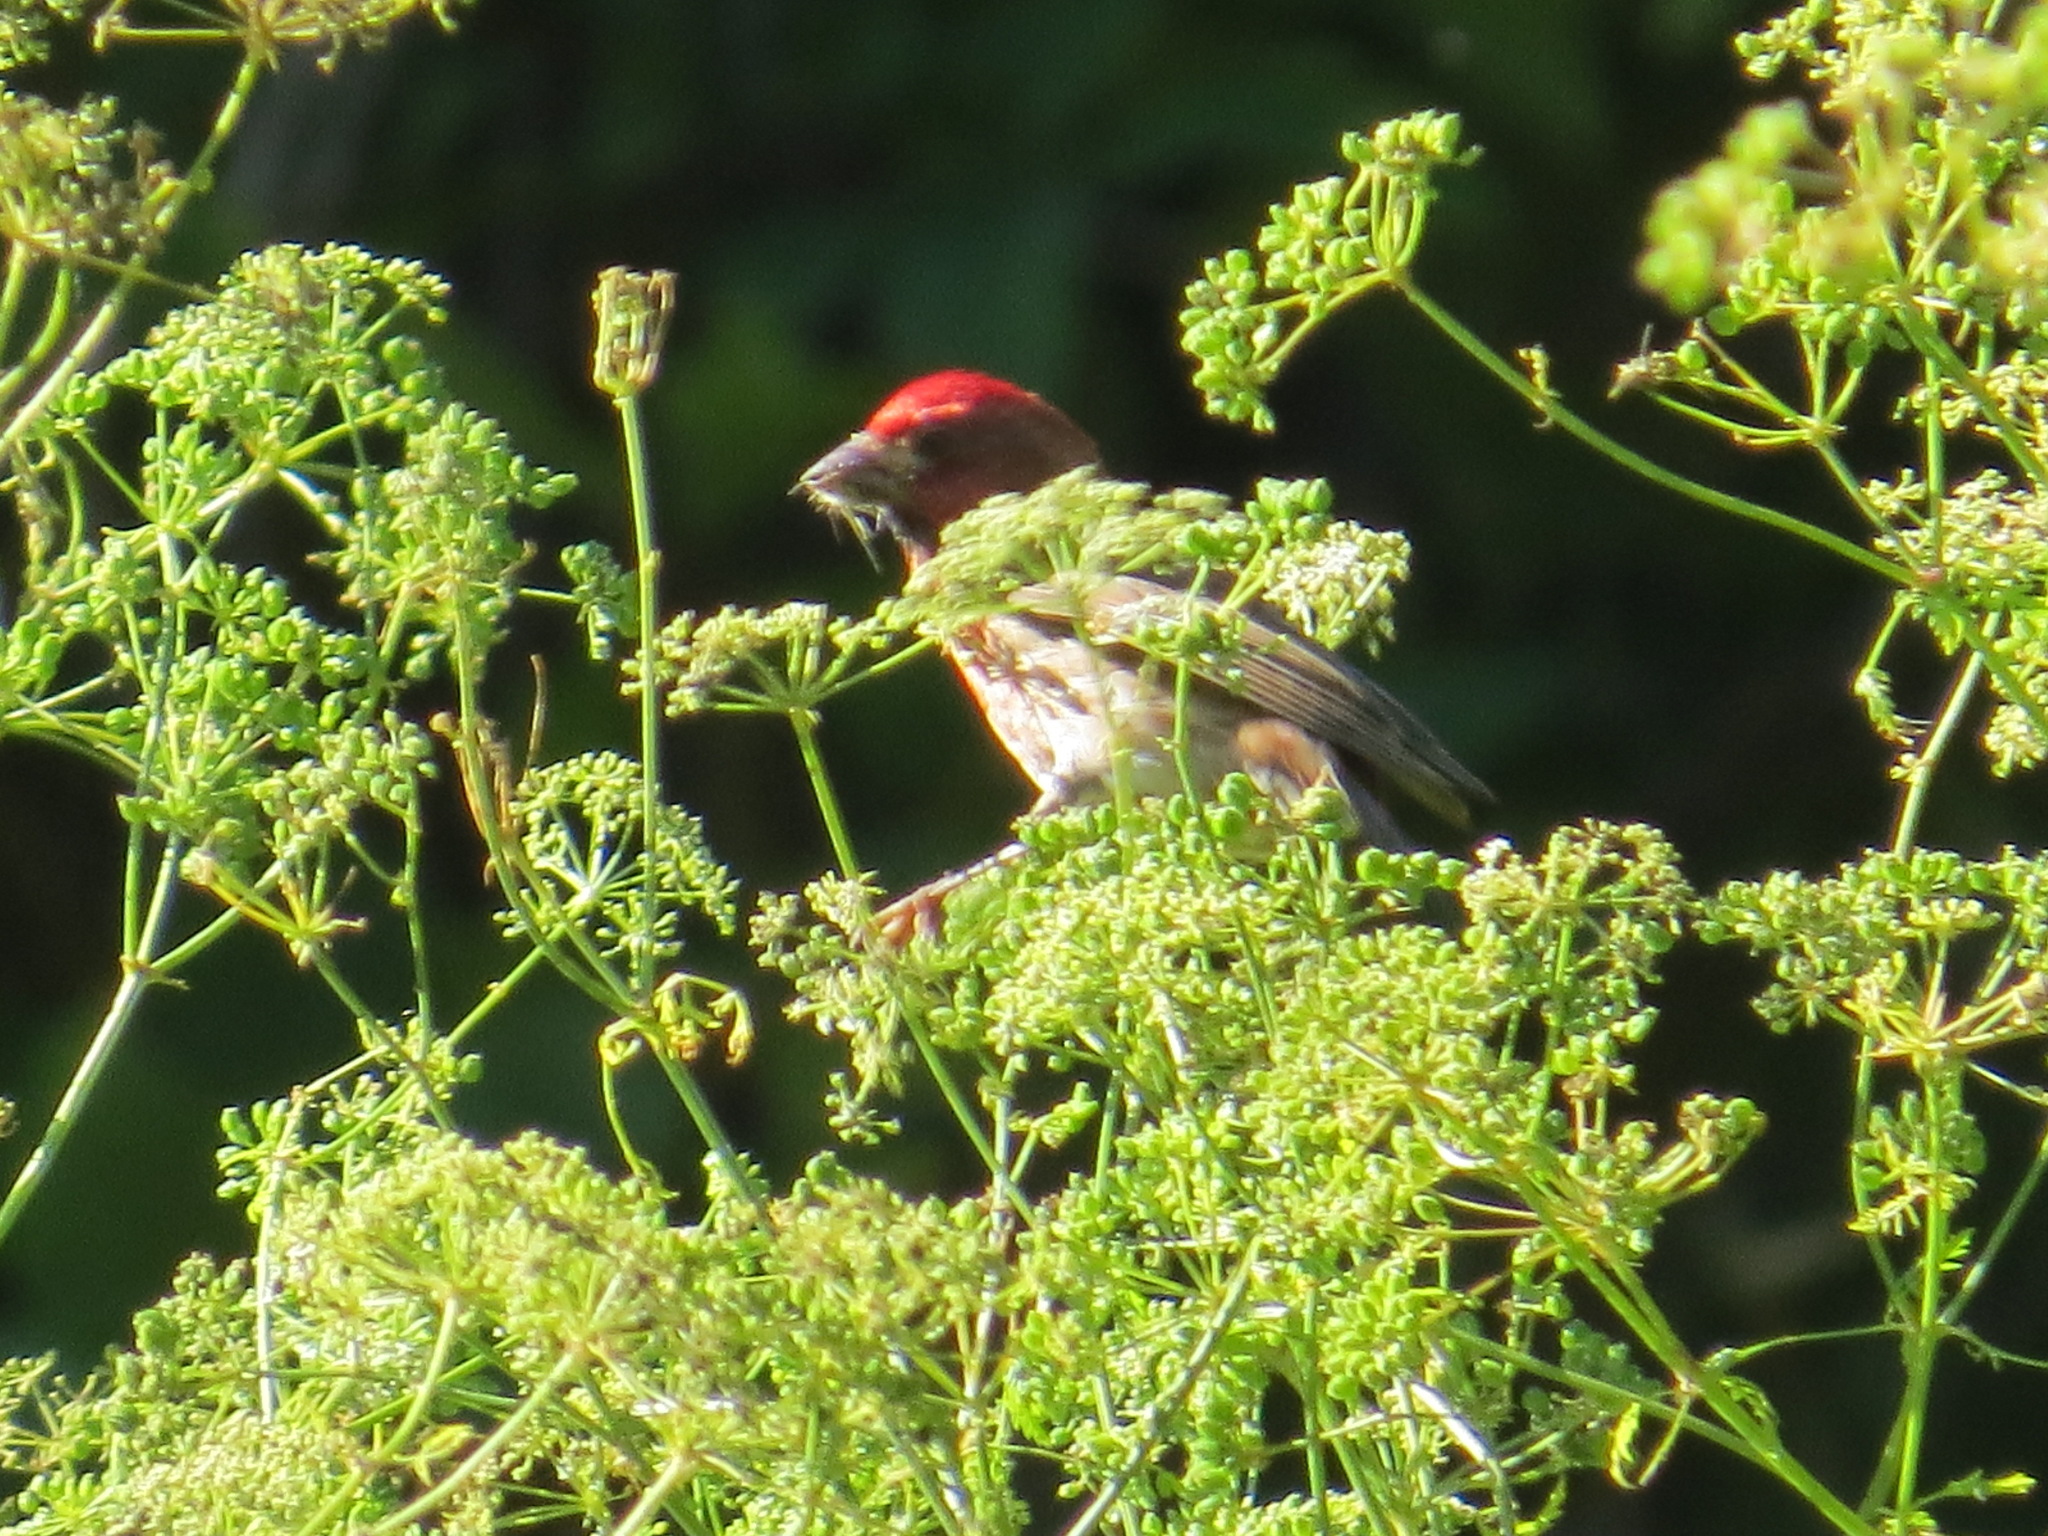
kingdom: Animalia
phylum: Chordata
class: Aves
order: Passeriformes
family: Fringillidae
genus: Haemorhous
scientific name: Haemorhous purpureus
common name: Purple finch
